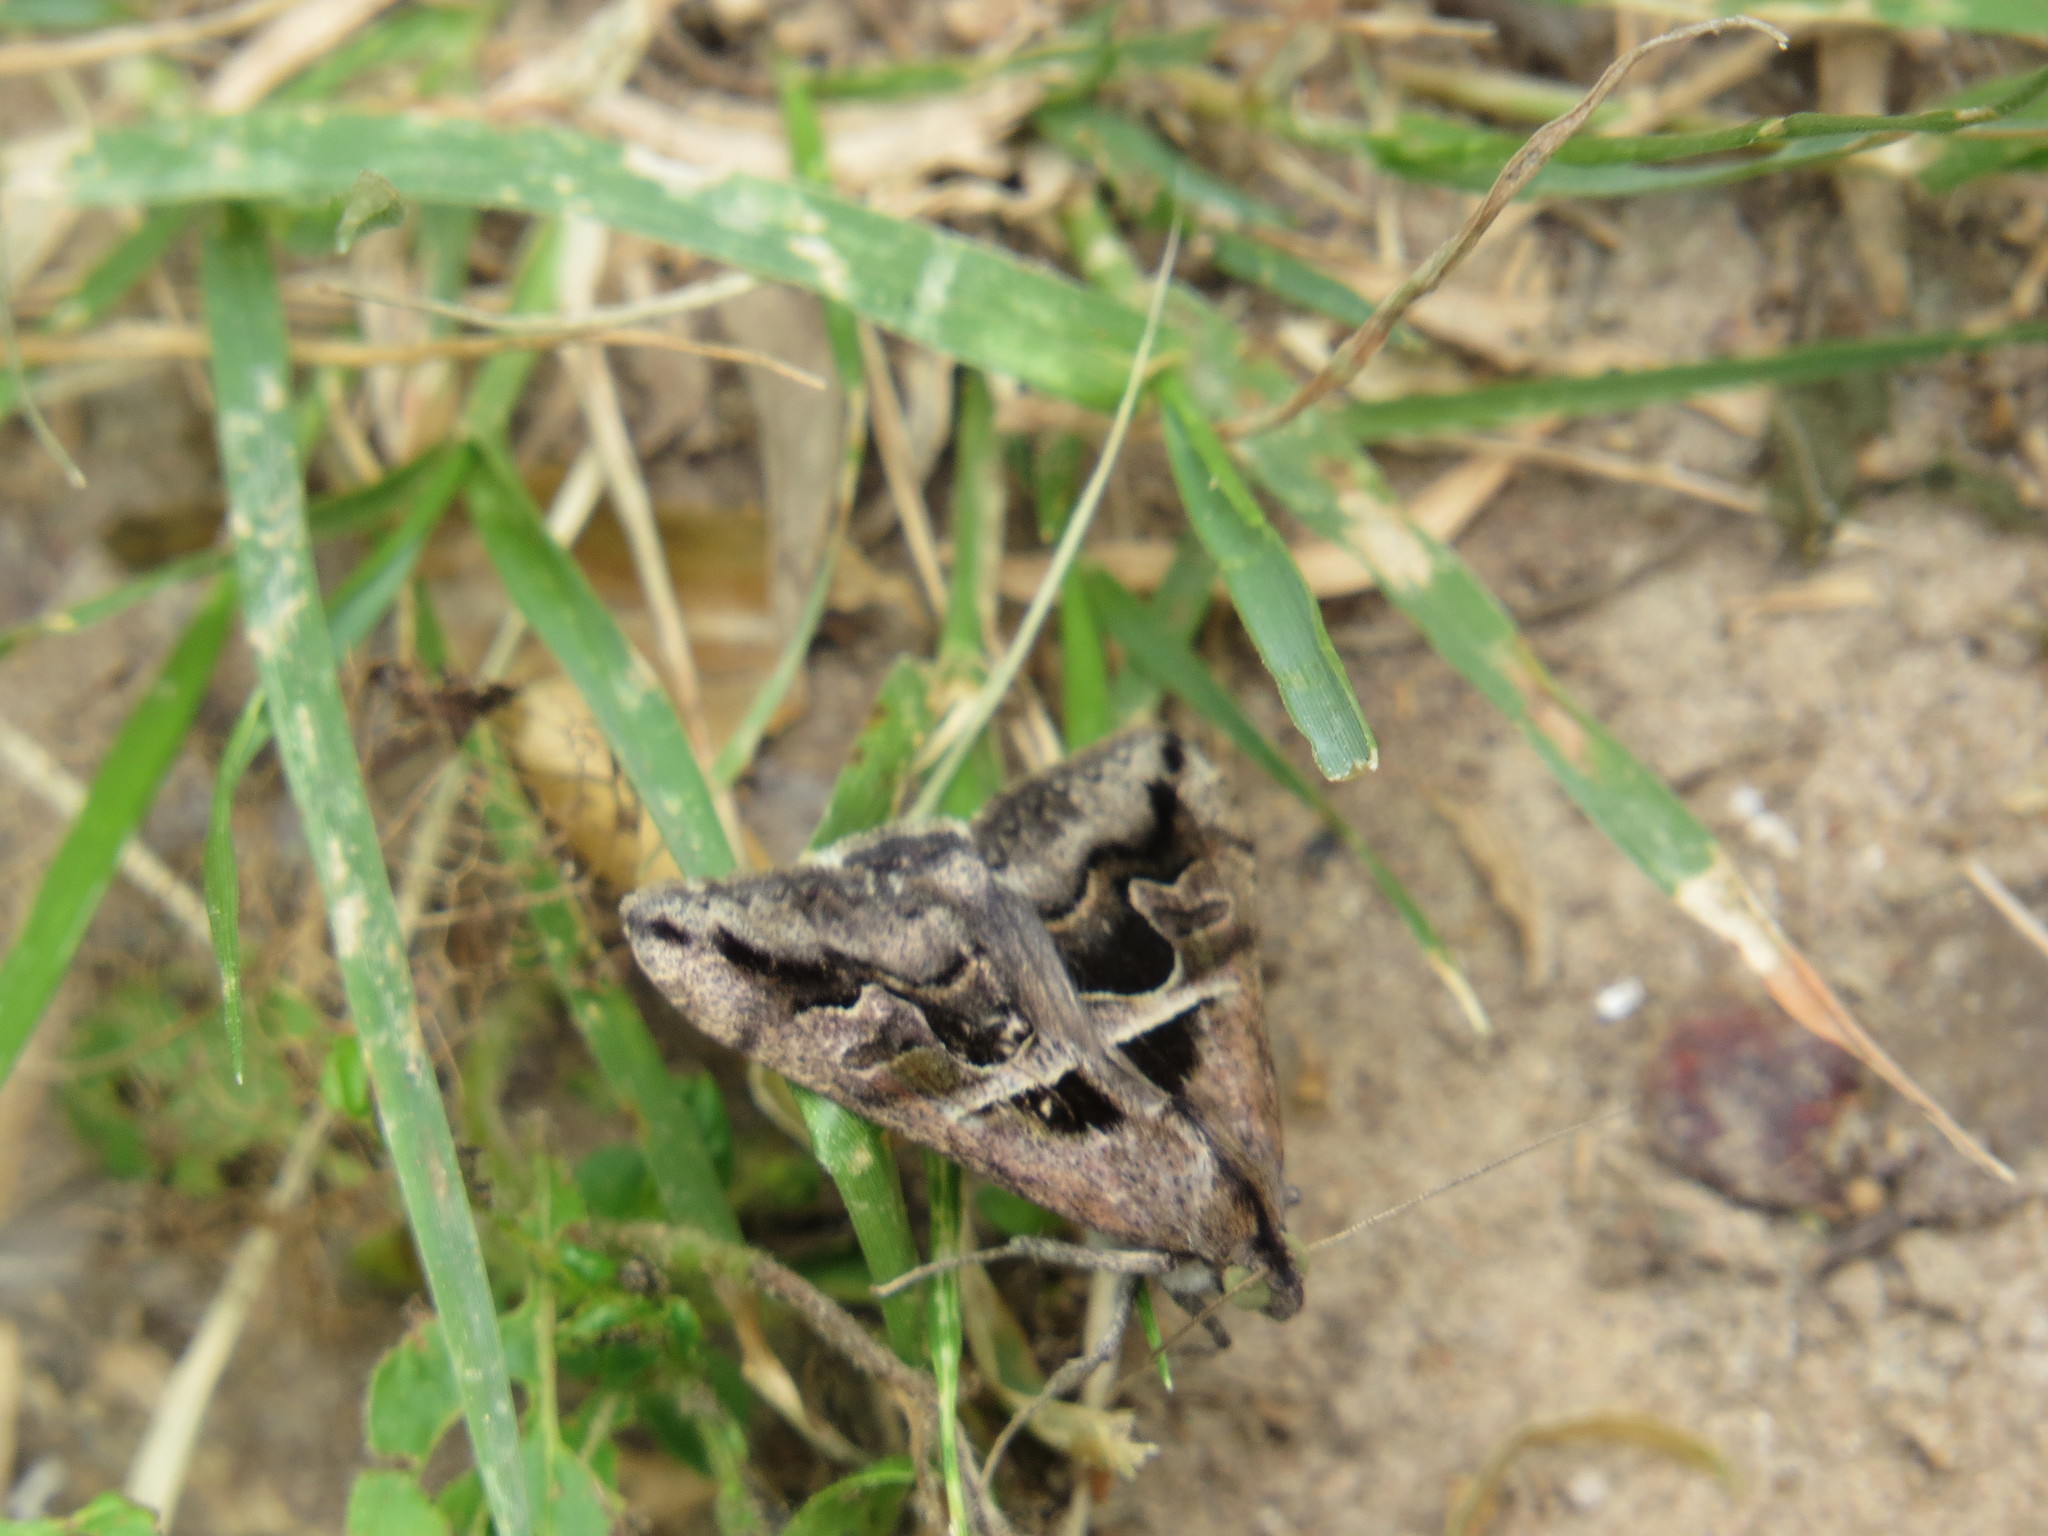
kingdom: Animalia
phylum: Arthropoda
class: Insecta
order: Lepidoptera
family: Erebidae
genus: Melipotis
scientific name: Melipotis cellaris
